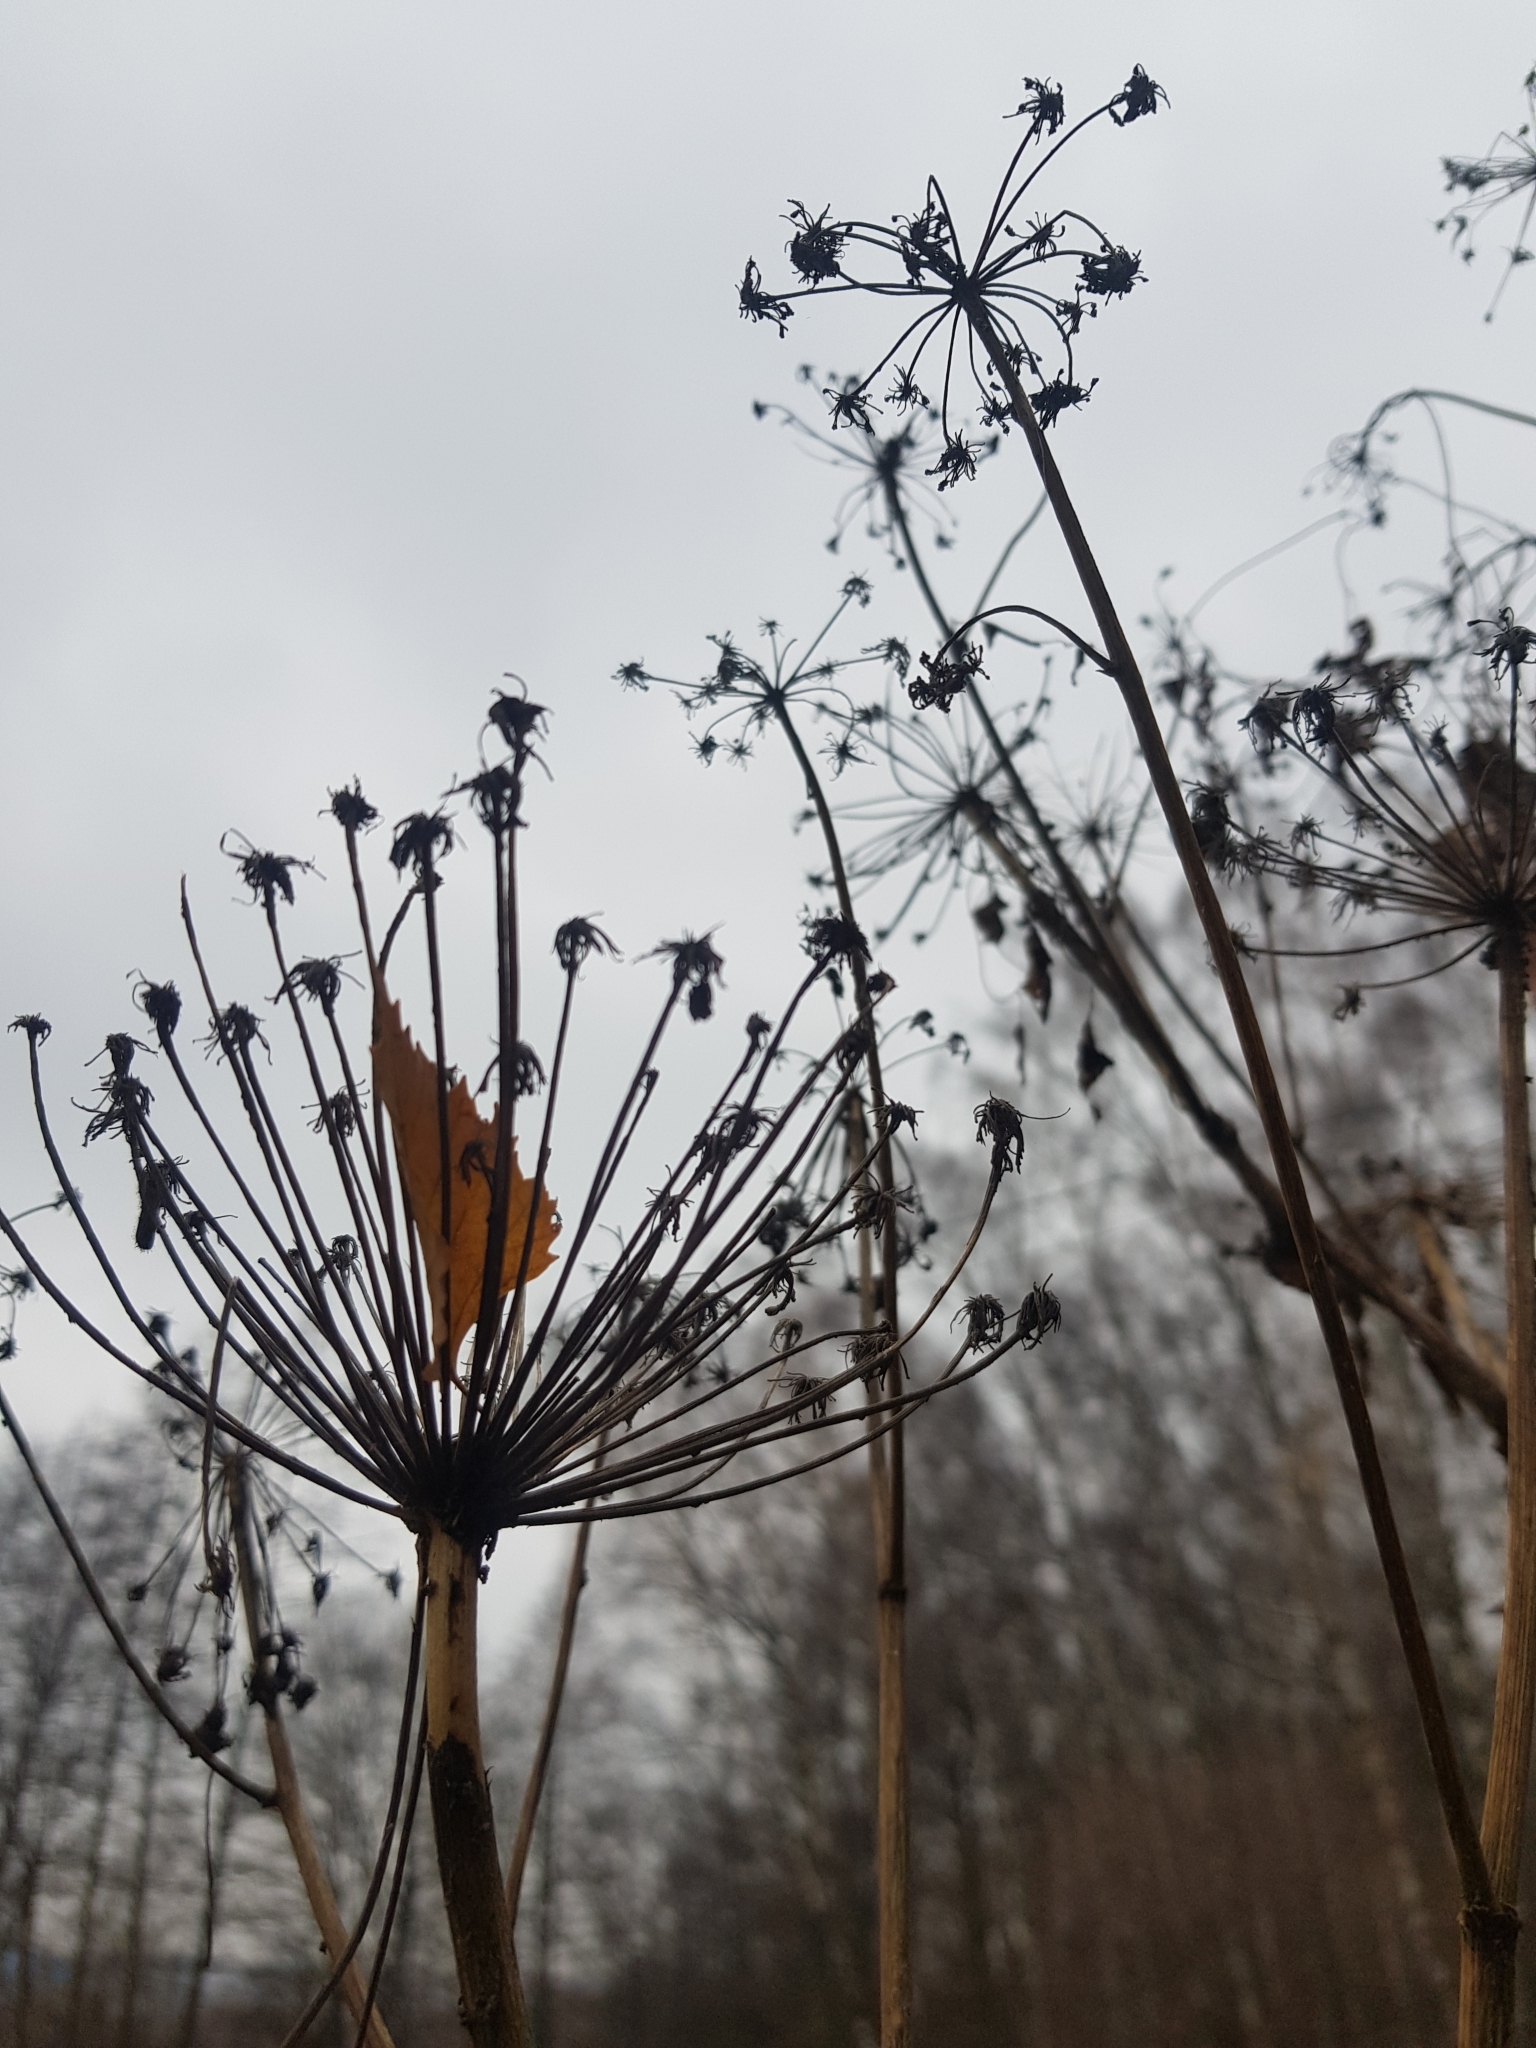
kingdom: Plantae
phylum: Tracheophyta
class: Magnoliopsida
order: Apiales
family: Apiaceae
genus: Heracleum
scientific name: Heracleum sosnowskyi
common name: Sosnowsky's hogweed
